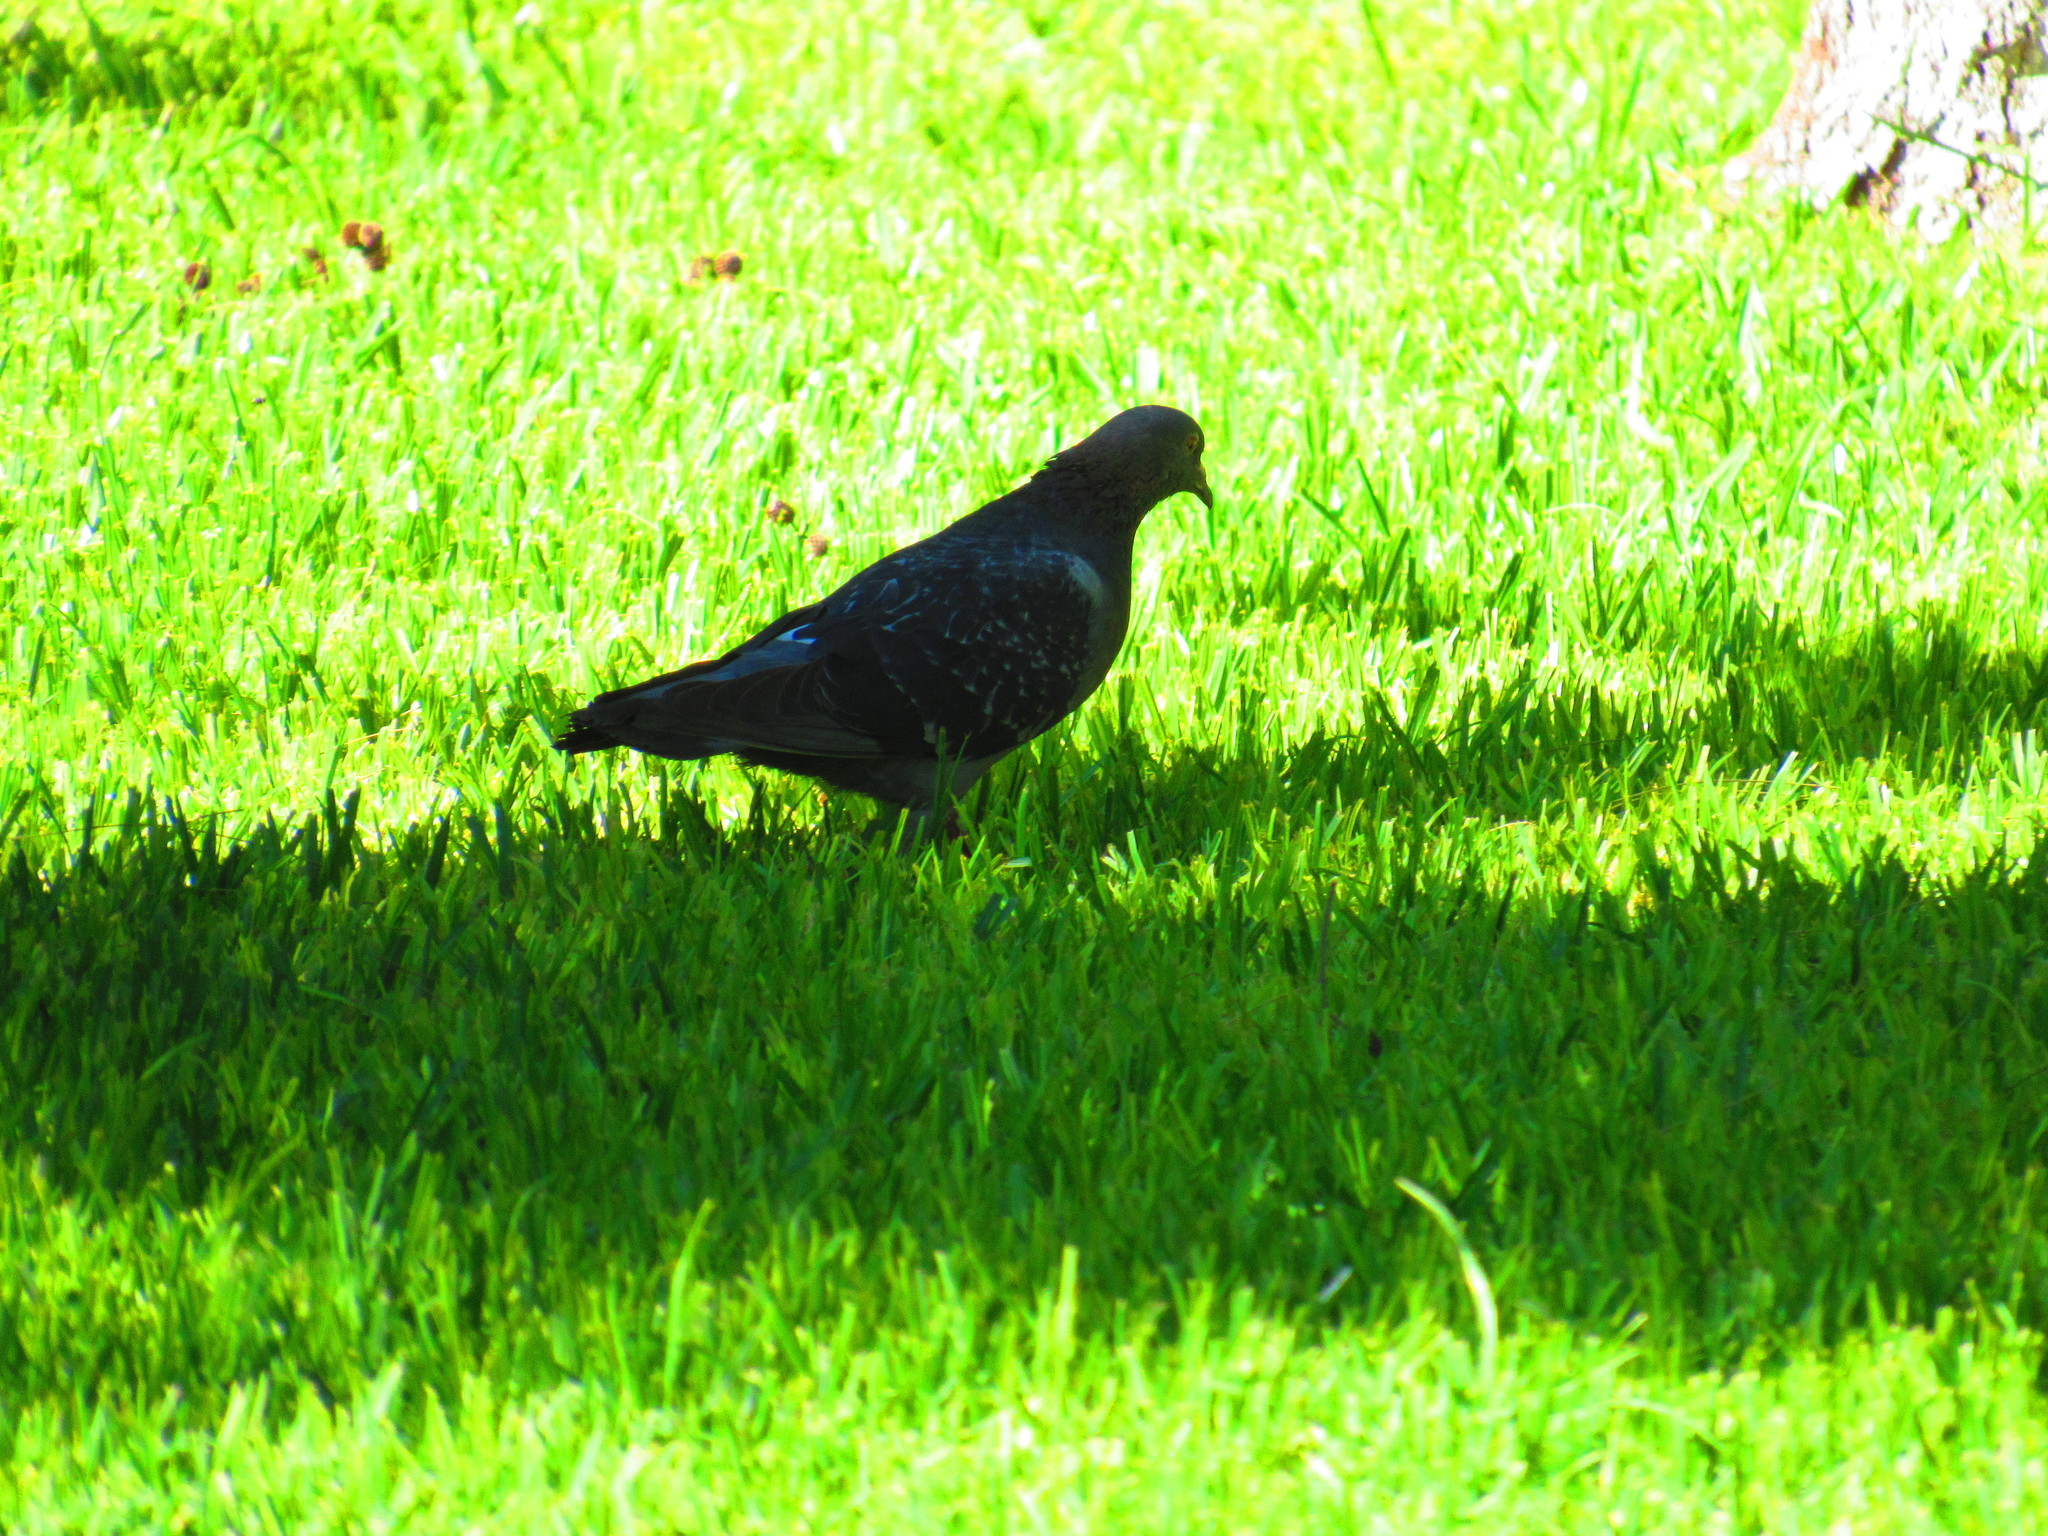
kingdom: Animalia
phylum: Chordata
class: Aves
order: Columbiformes
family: Columbidae
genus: Columba
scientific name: Columba livia
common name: Rock pigeon
